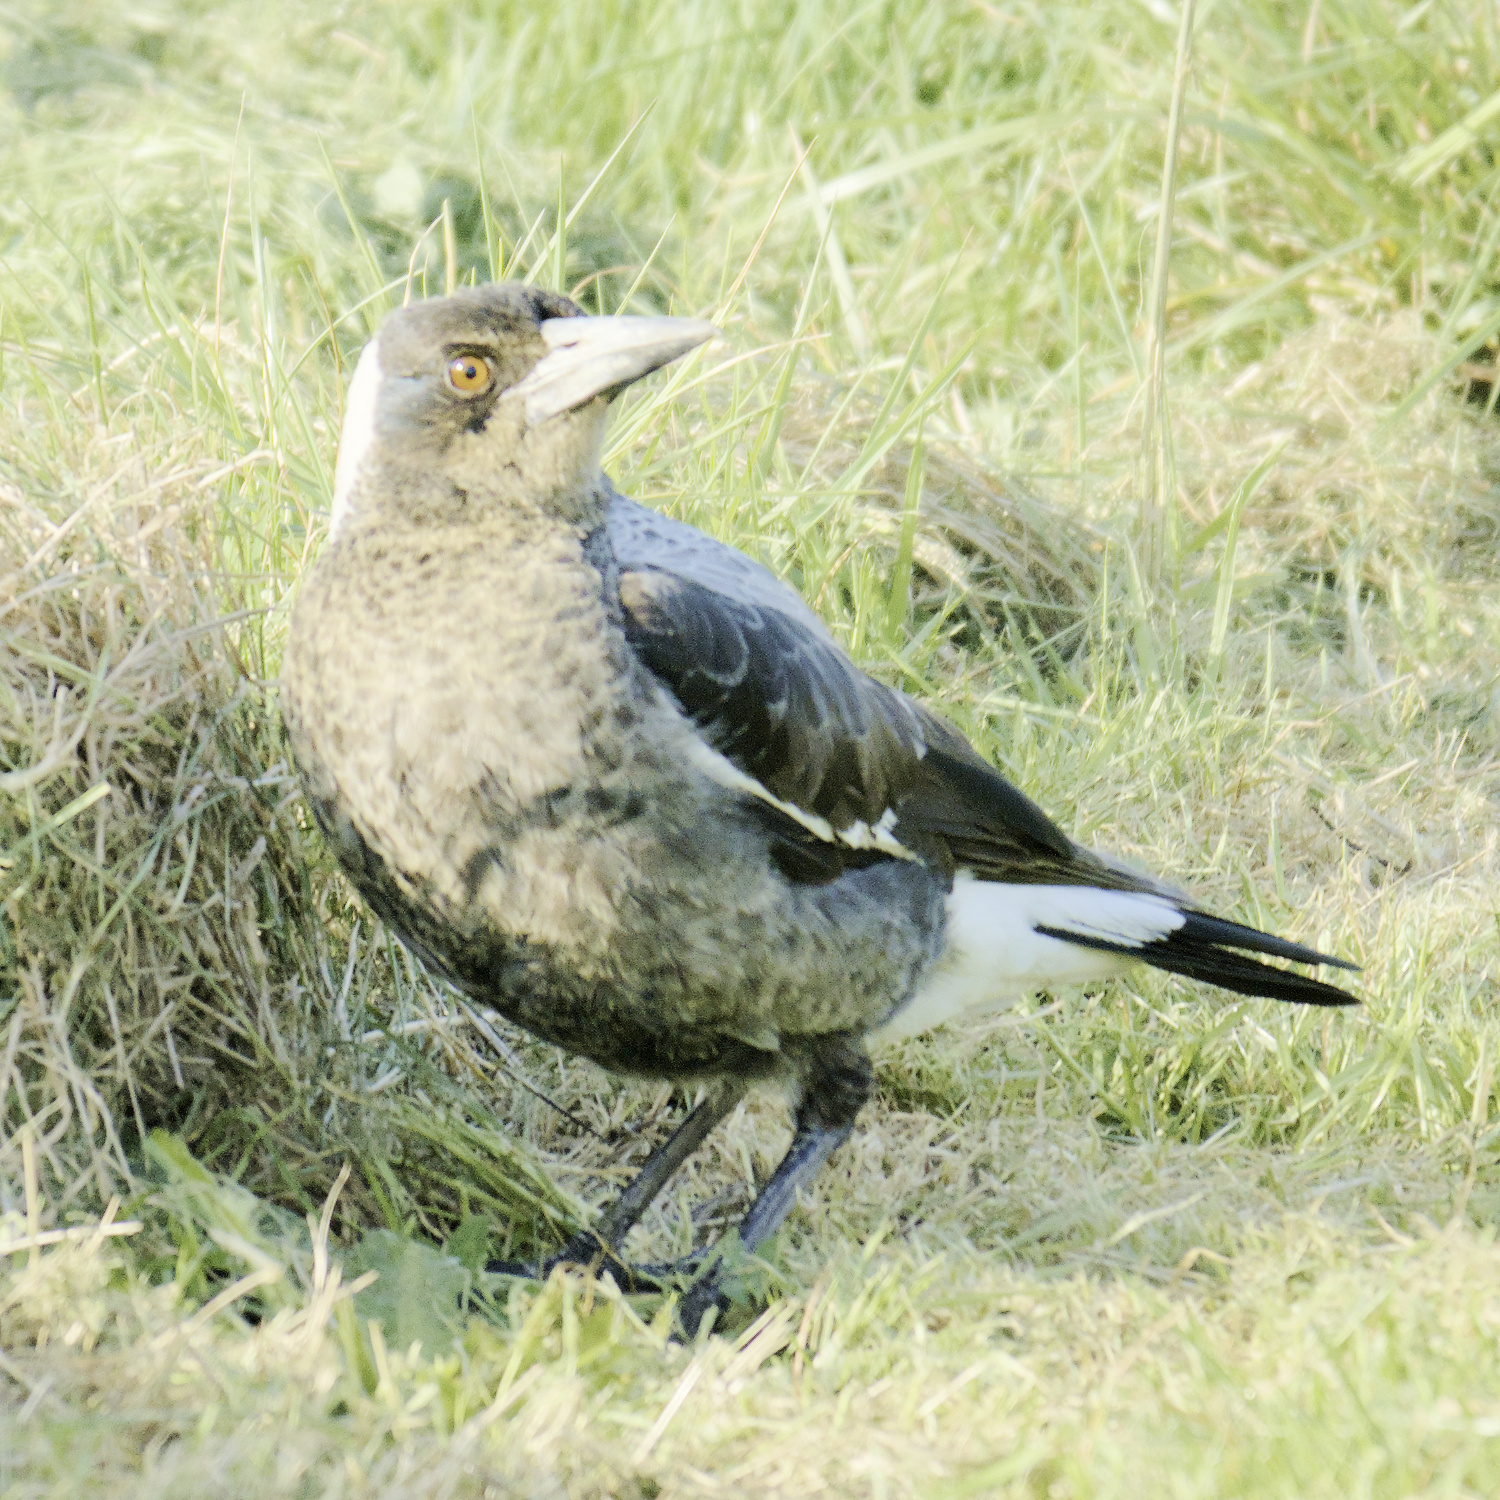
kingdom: Animalia
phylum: Chordata
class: Aves
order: Passeriformes
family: Cracticidae
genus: Gymnorhina
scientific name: Gymnorhina tibicen
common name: Australian magpie
